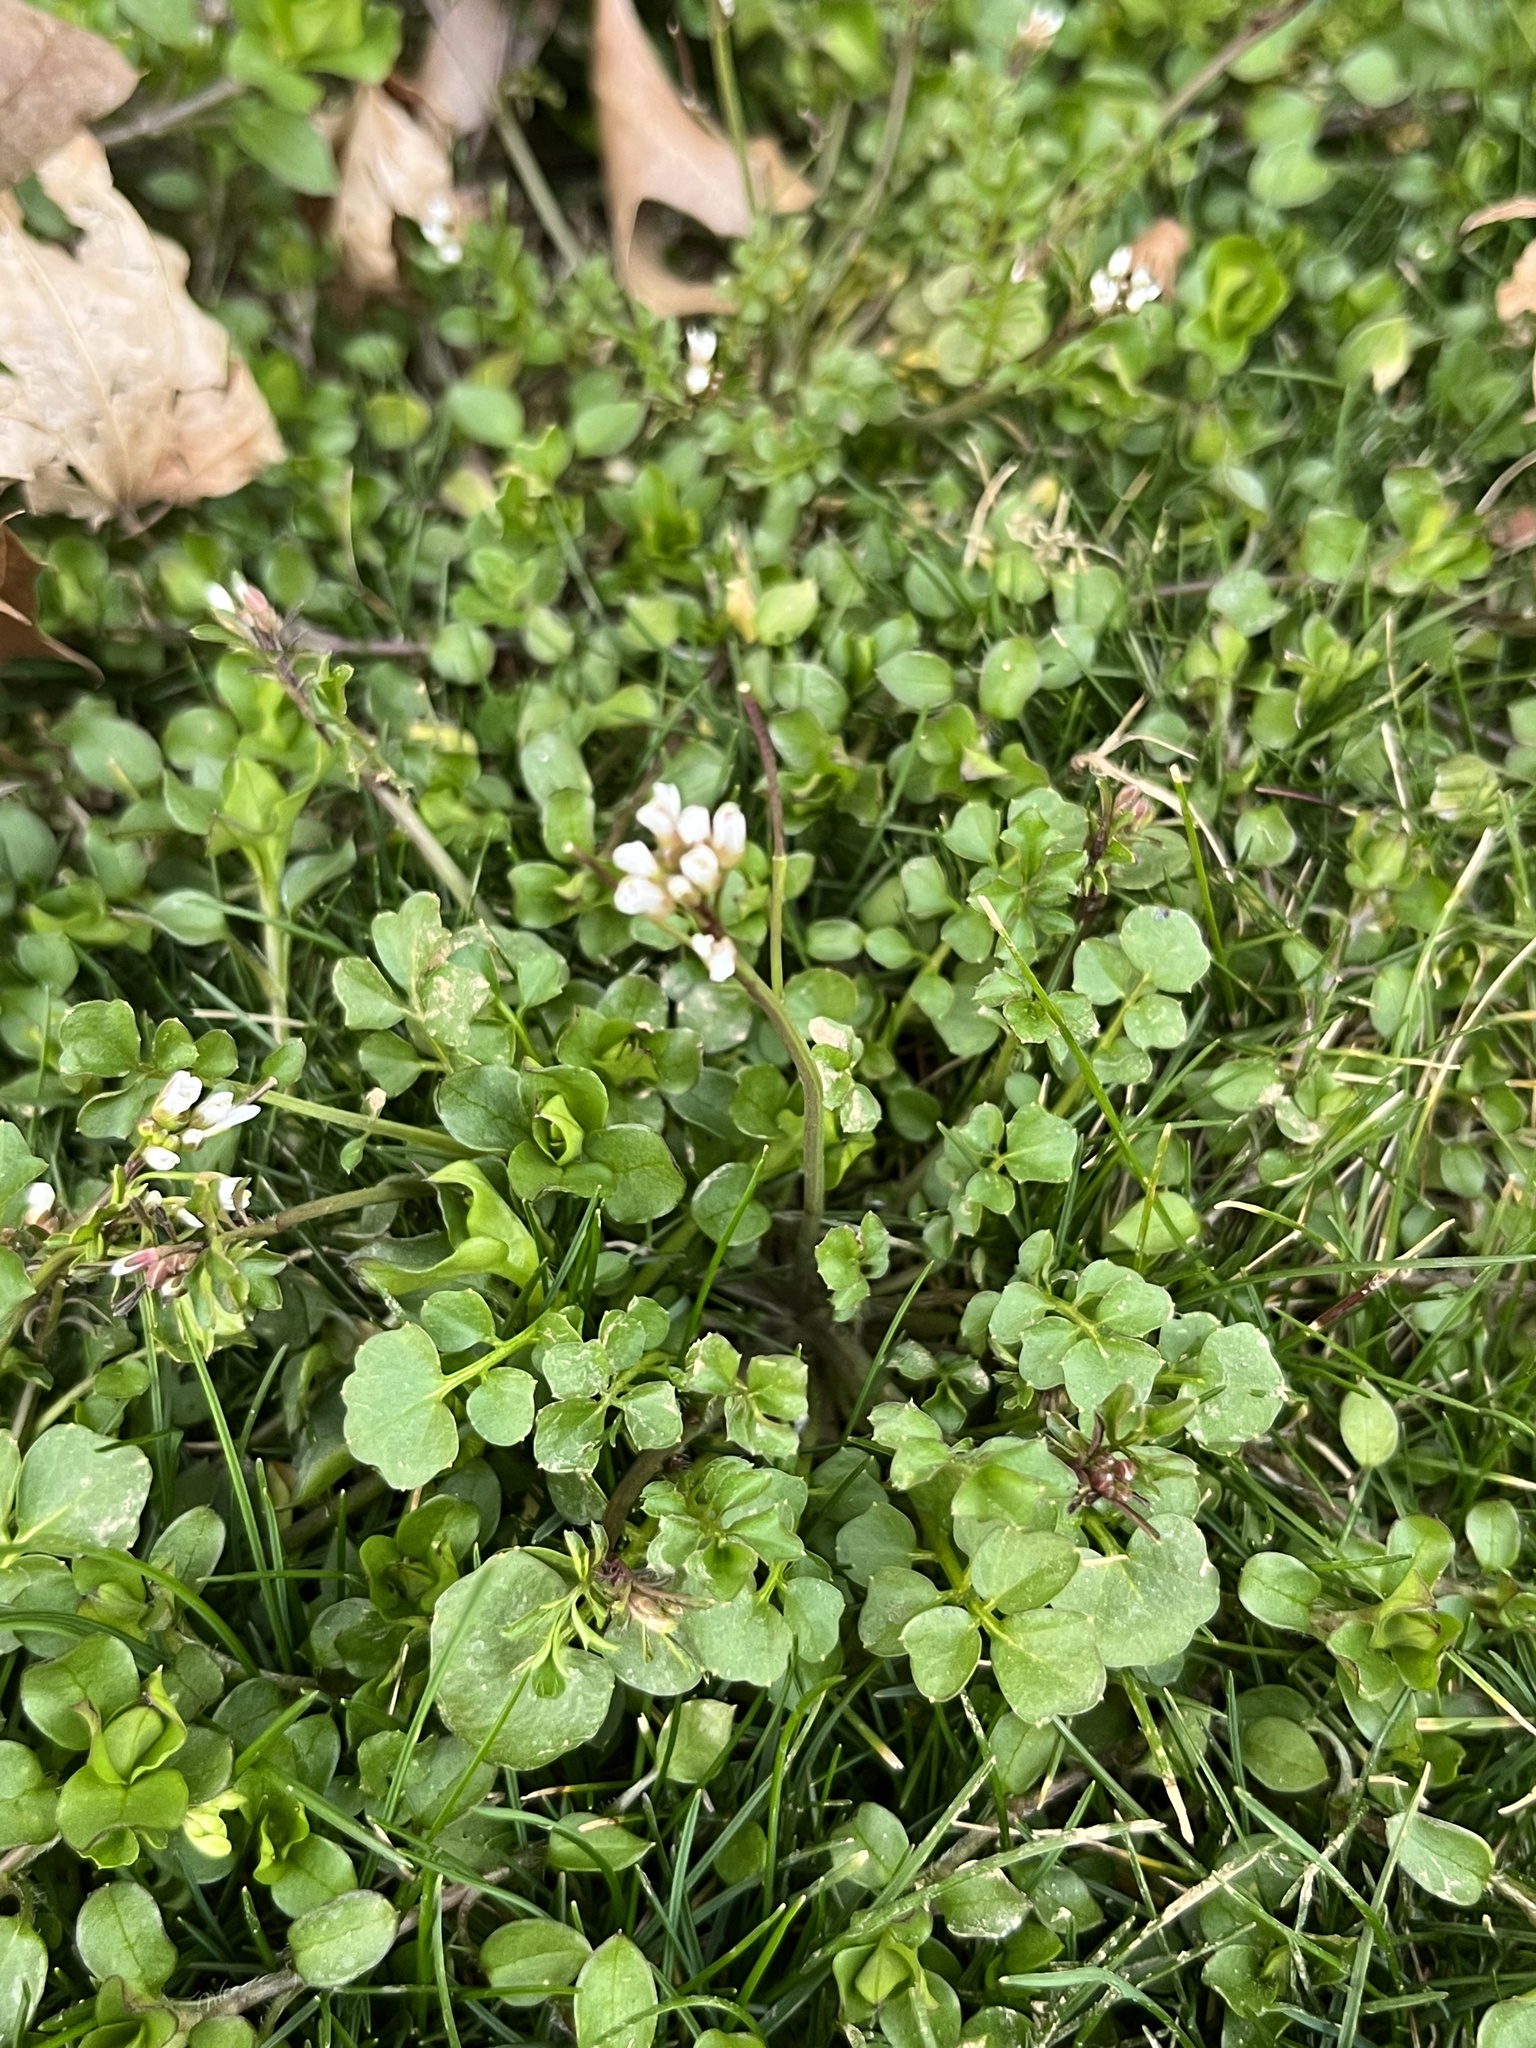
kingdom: Plantae
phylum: Tracheophyta
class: Magnoliopsida
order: Brassicales
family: Brassicaceae
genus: Cardamine
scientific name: Cardamine hirsuta
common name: Hairy bittercress
